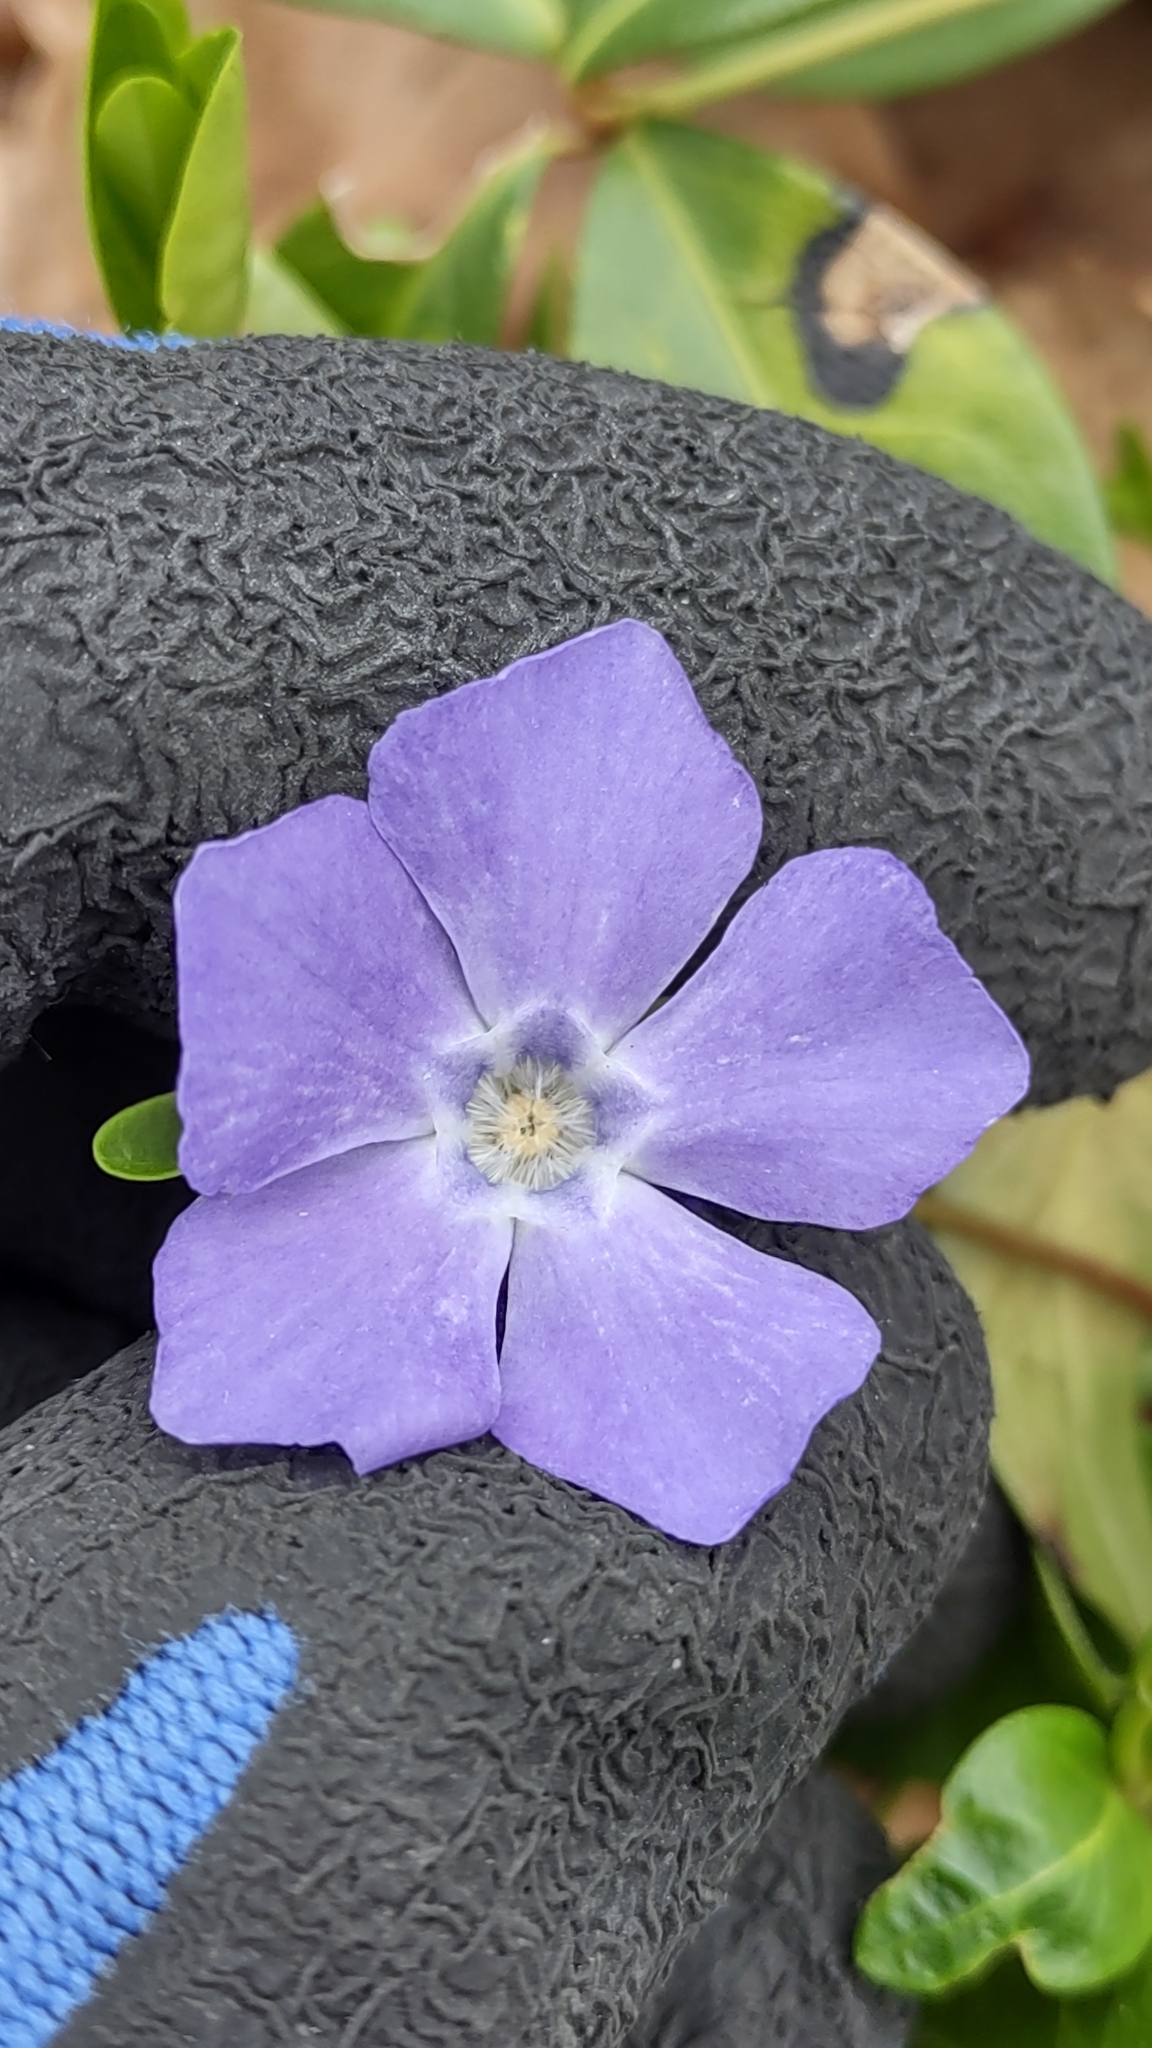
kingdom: Plantae
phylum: Tracheophyta
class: Magnoliopsida
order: Gentianales
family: Apocynaceae
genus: Vinca
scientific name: Vinca minor
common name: Lesser periwinkle
